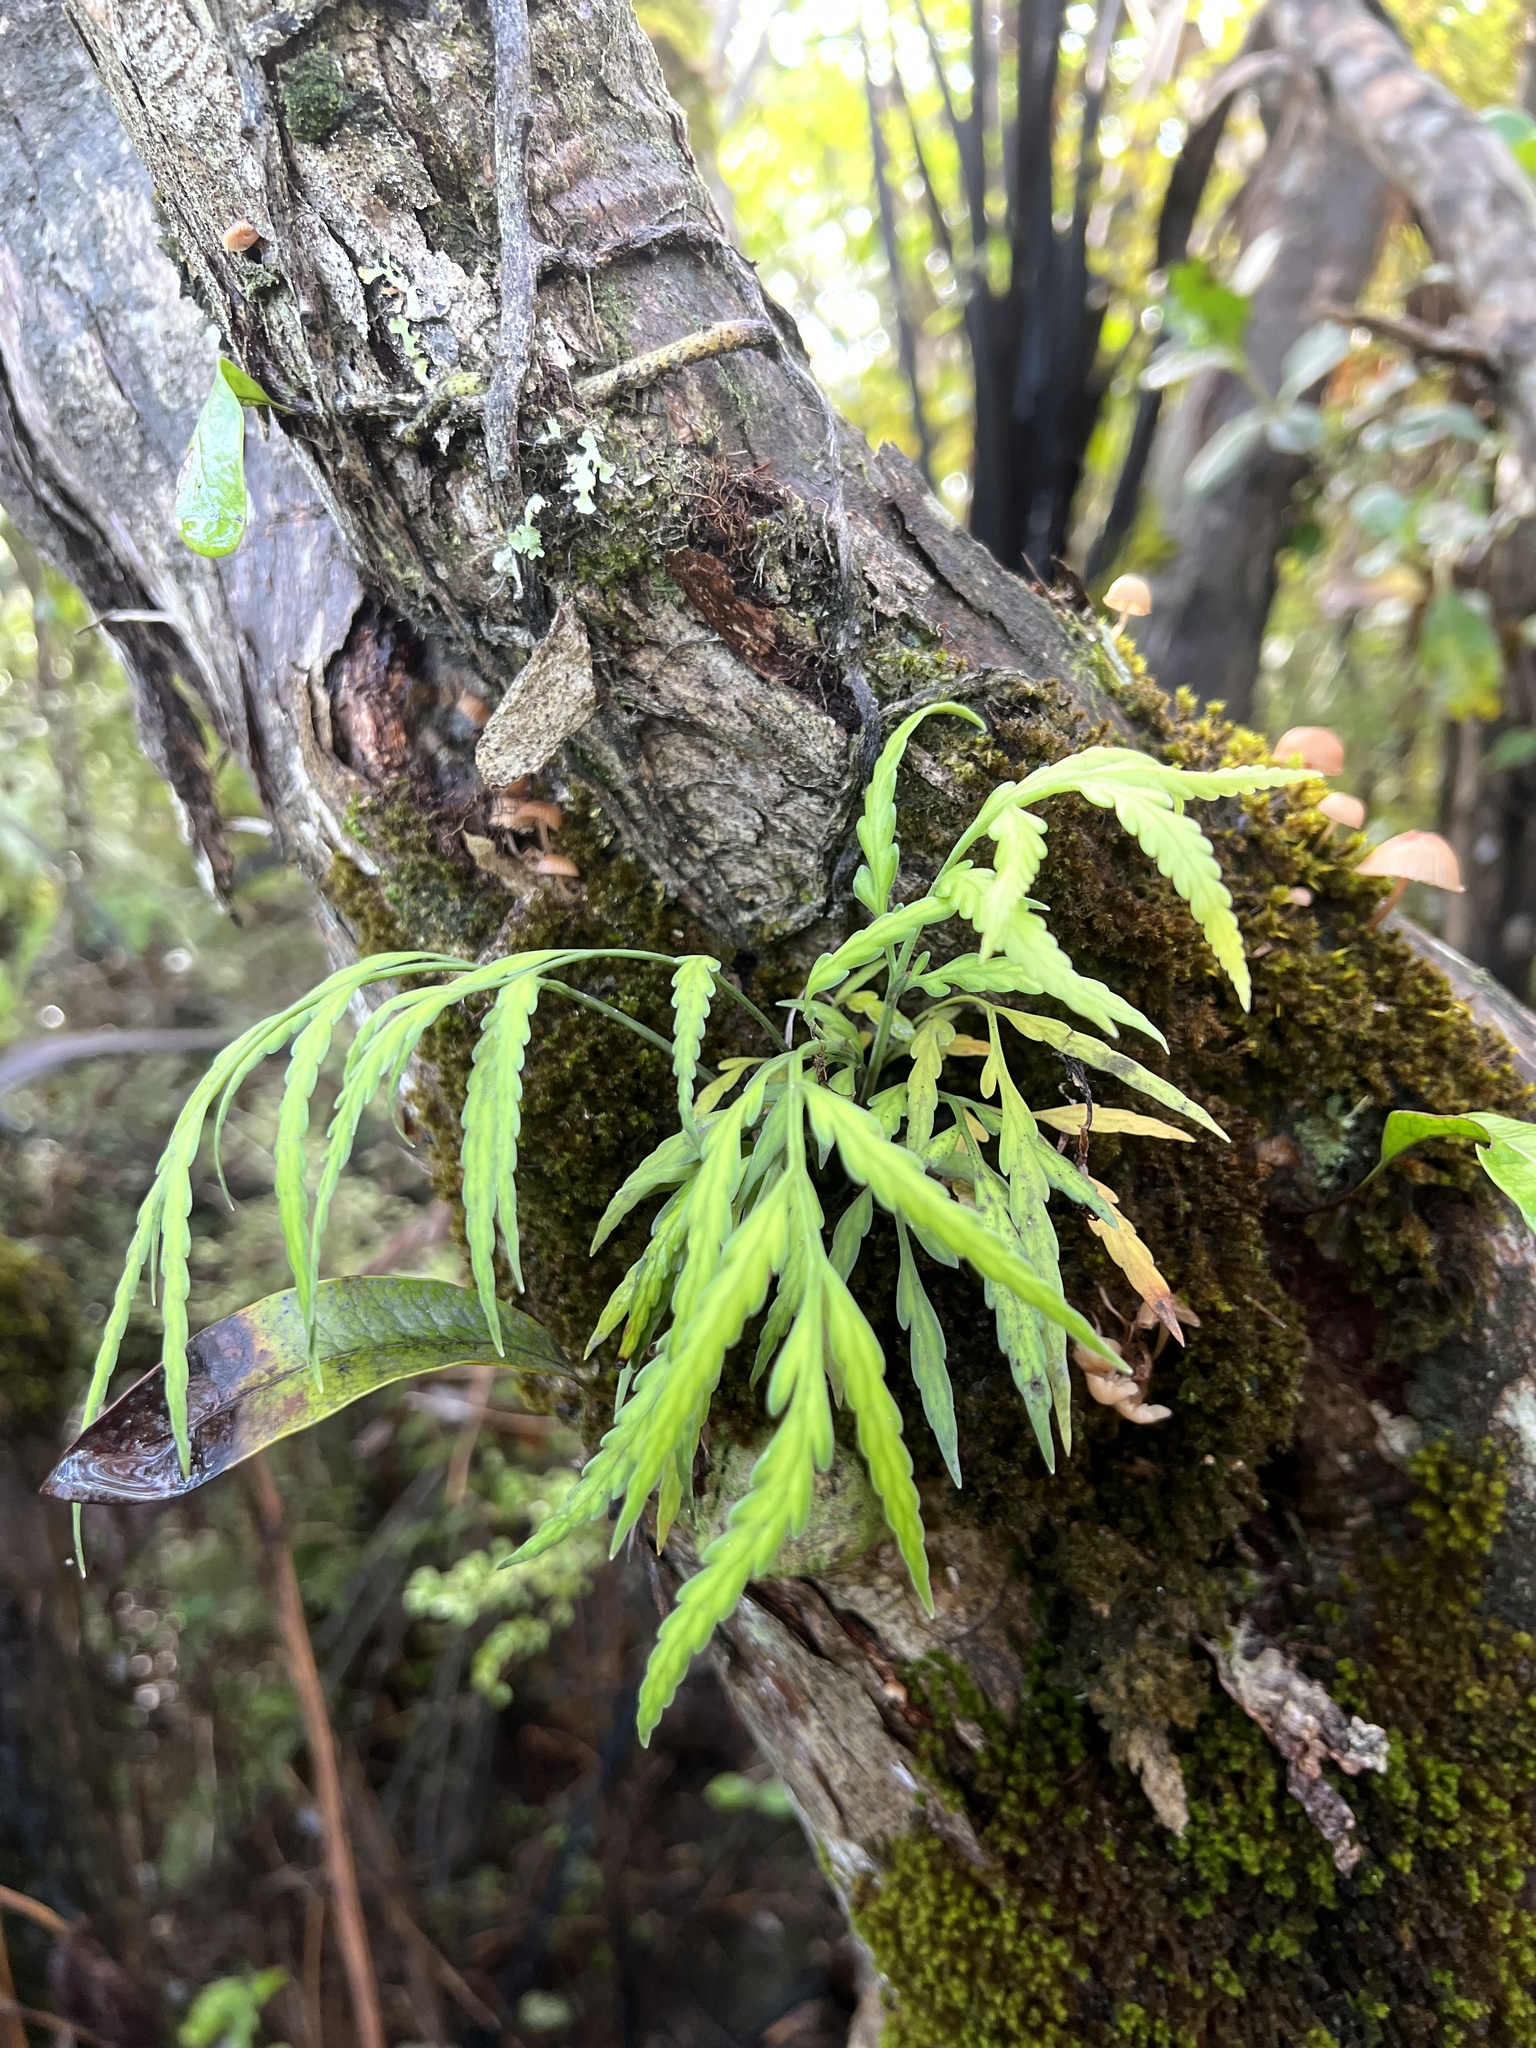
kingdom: Plantae
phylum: Tracheophyta
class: Polypodiopsida
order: Polypodiales
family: Aspleniaceae
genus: Asplenium
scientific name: Asplenium flaccidum
